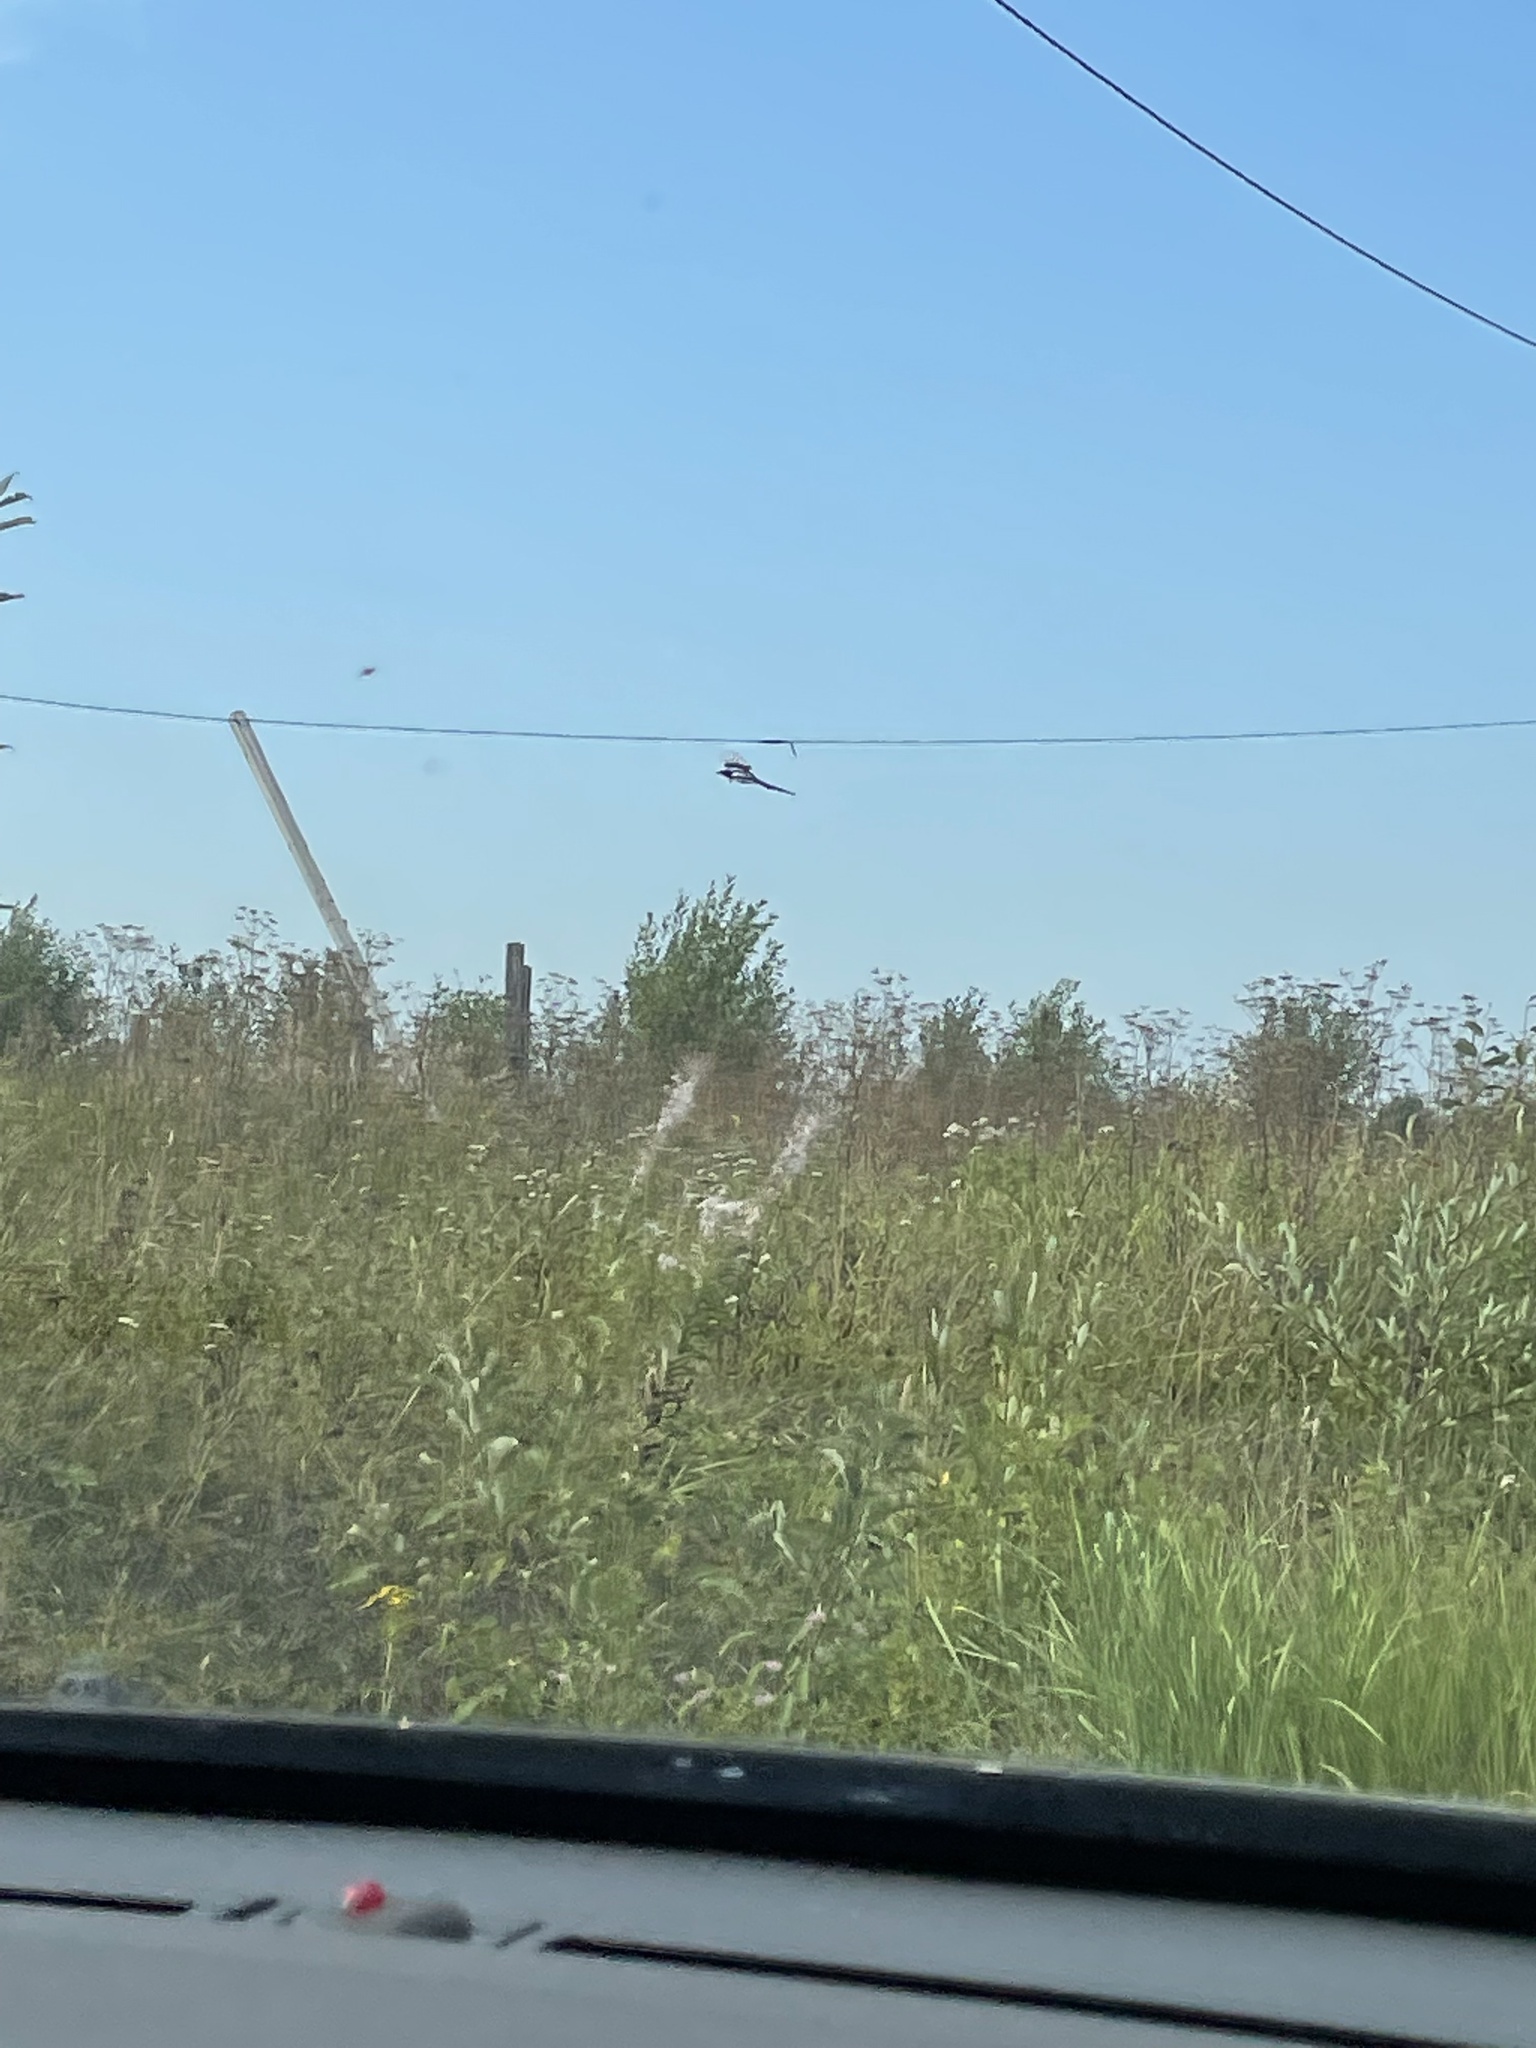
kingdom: Animalia
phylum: Chordata
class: Aves
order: Passeriformes
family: Corvidae
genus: Pica
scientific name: Pica pica
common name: Eurasian magpie
